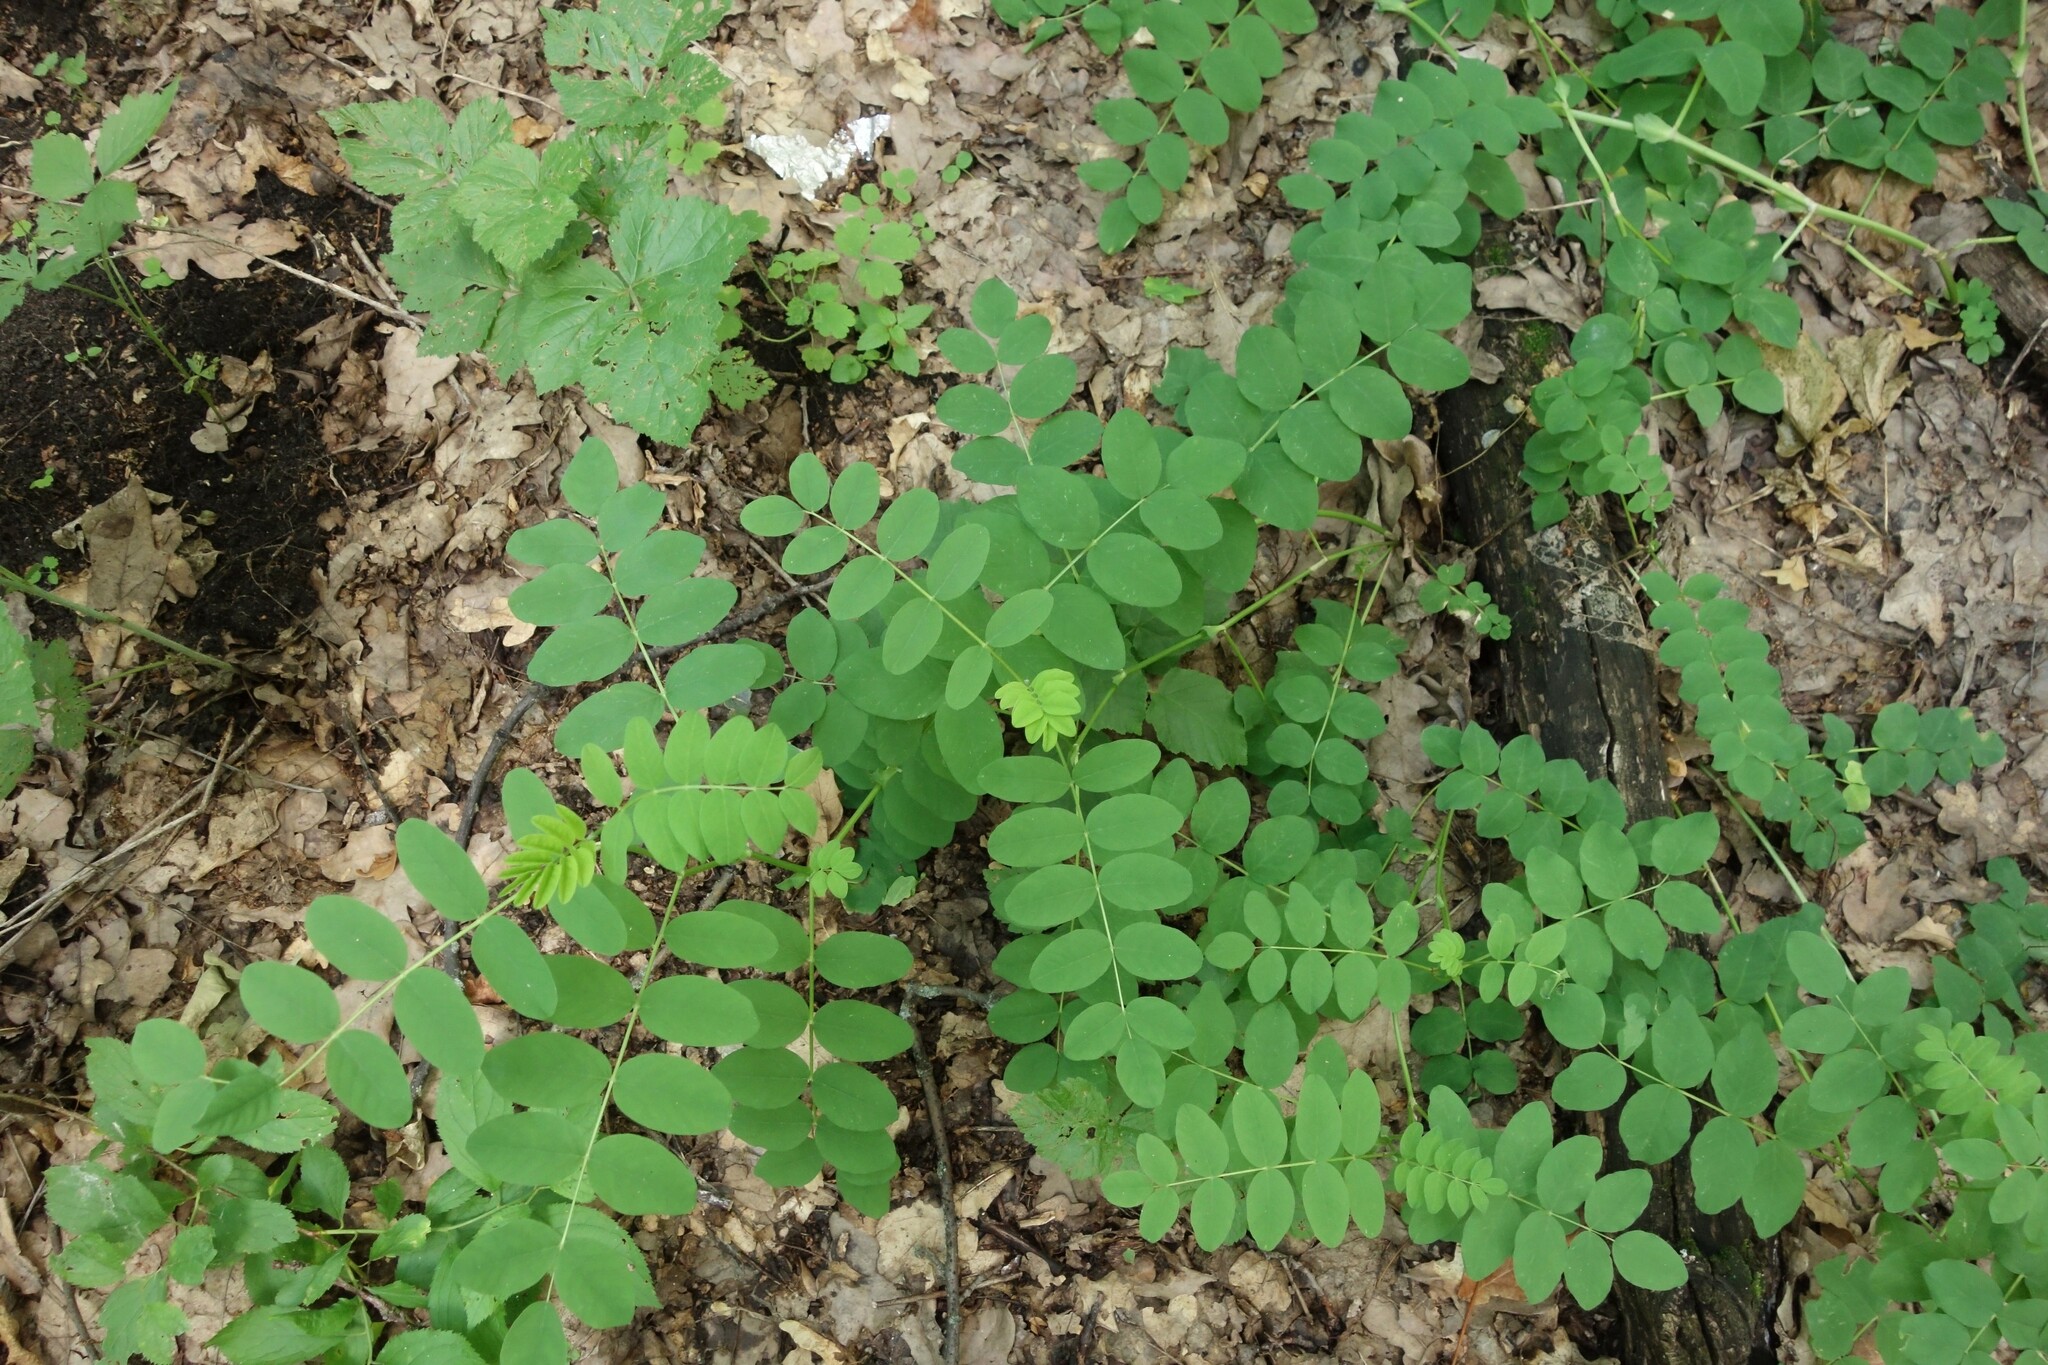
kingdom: Plantae
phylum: Tracheophyta
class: Magnoliopsida
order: Fabales
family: Fabaceae
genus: Astragalus
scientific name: Astragalus glycyphyllos
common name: Wild liquorice
